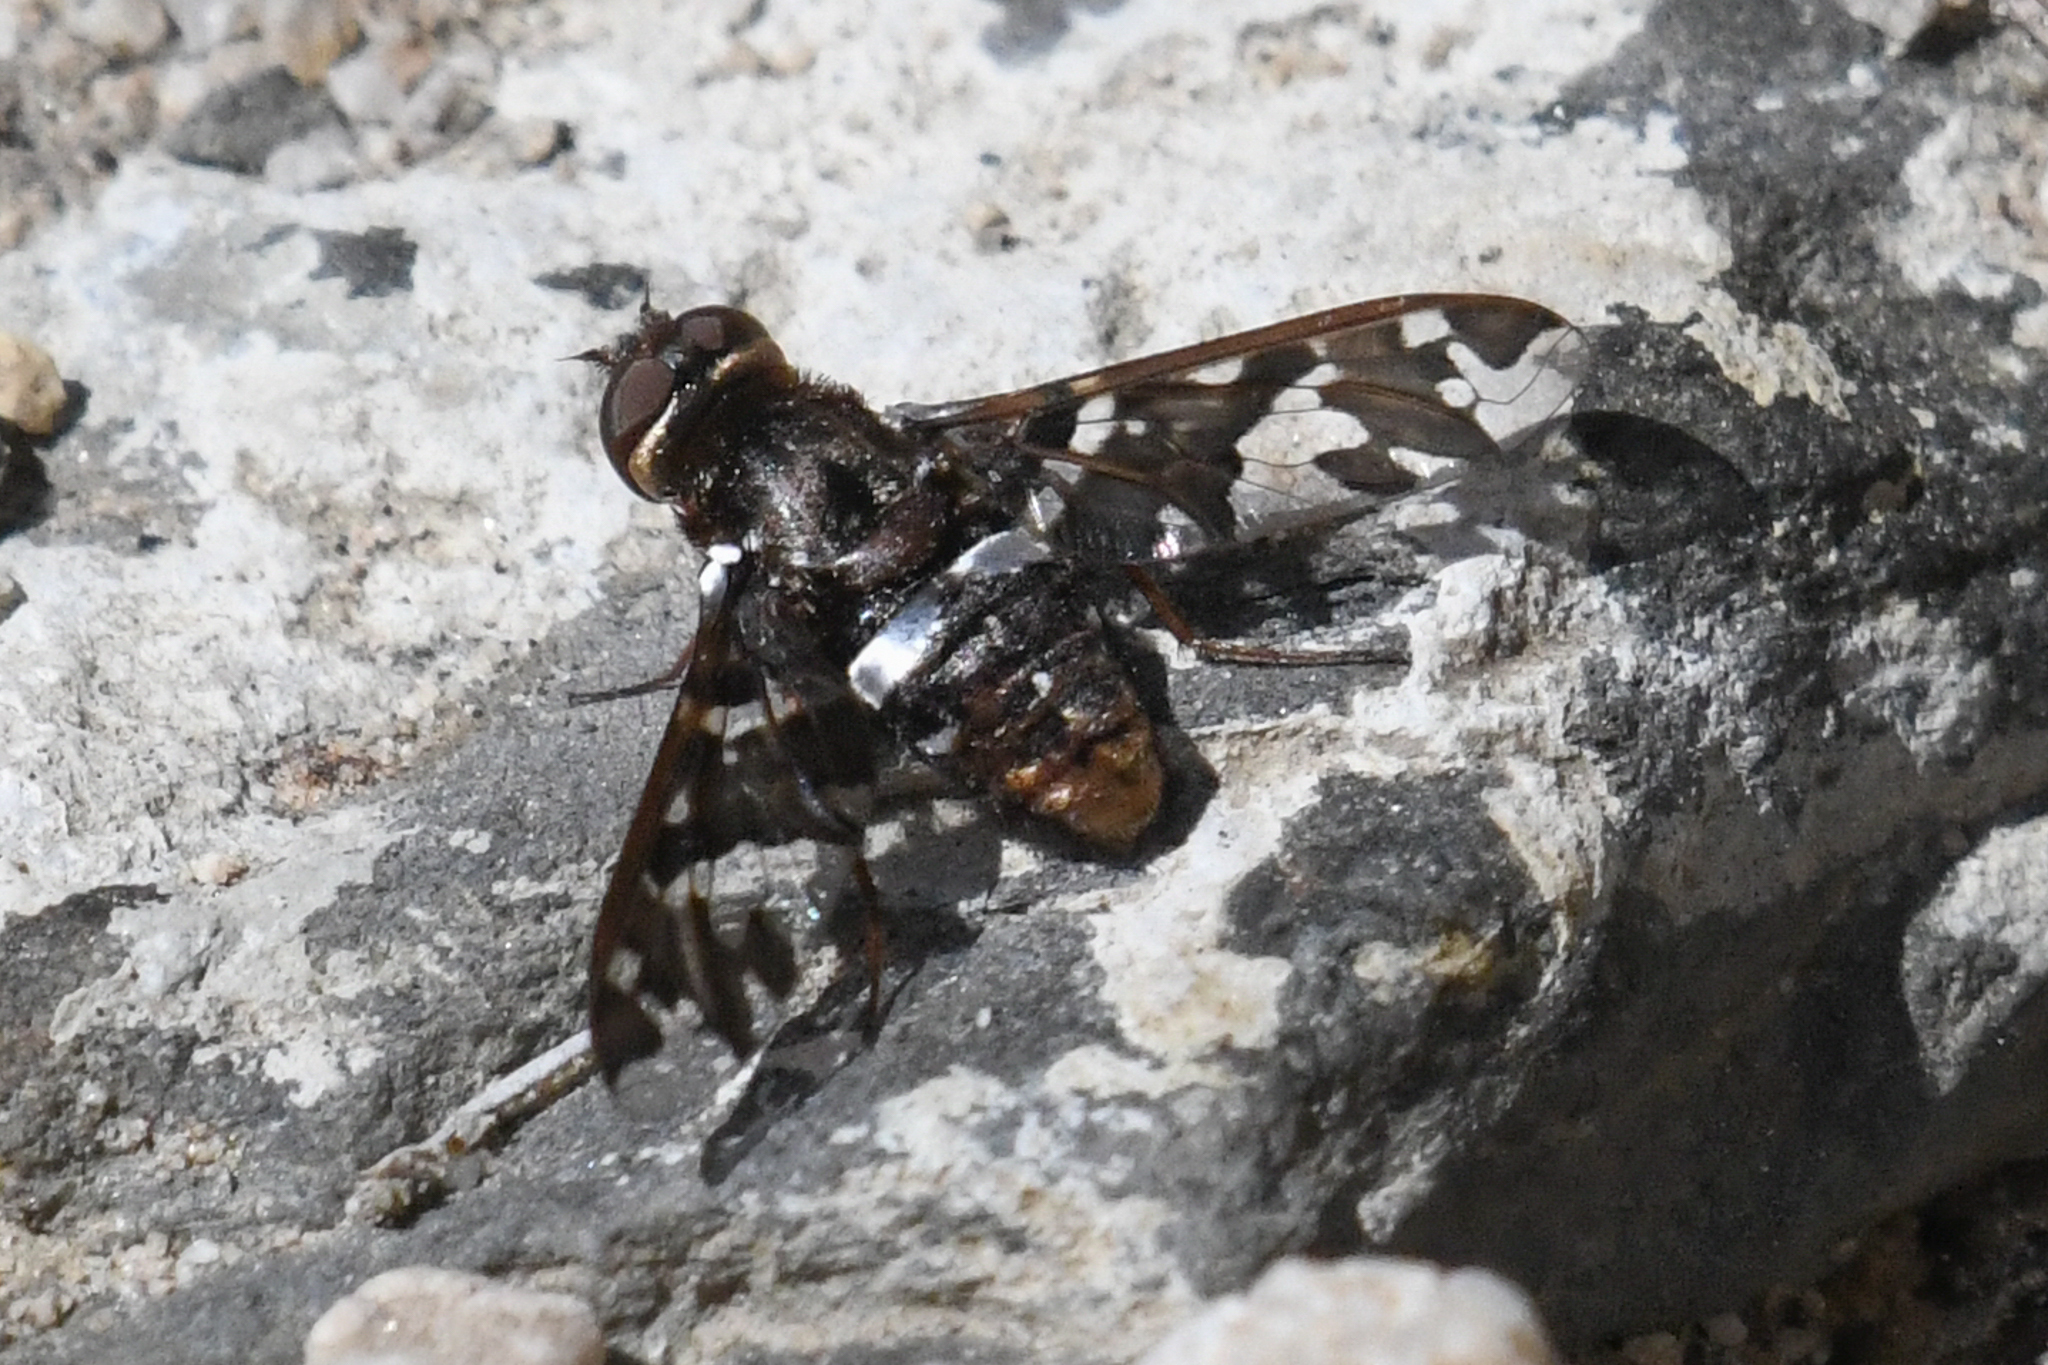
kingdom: Animalia
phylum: Arthropoda
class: Insecta
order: Diptera
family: Bombyliidae
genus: Exoprosopa
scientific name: Exoprosopa caliptera
